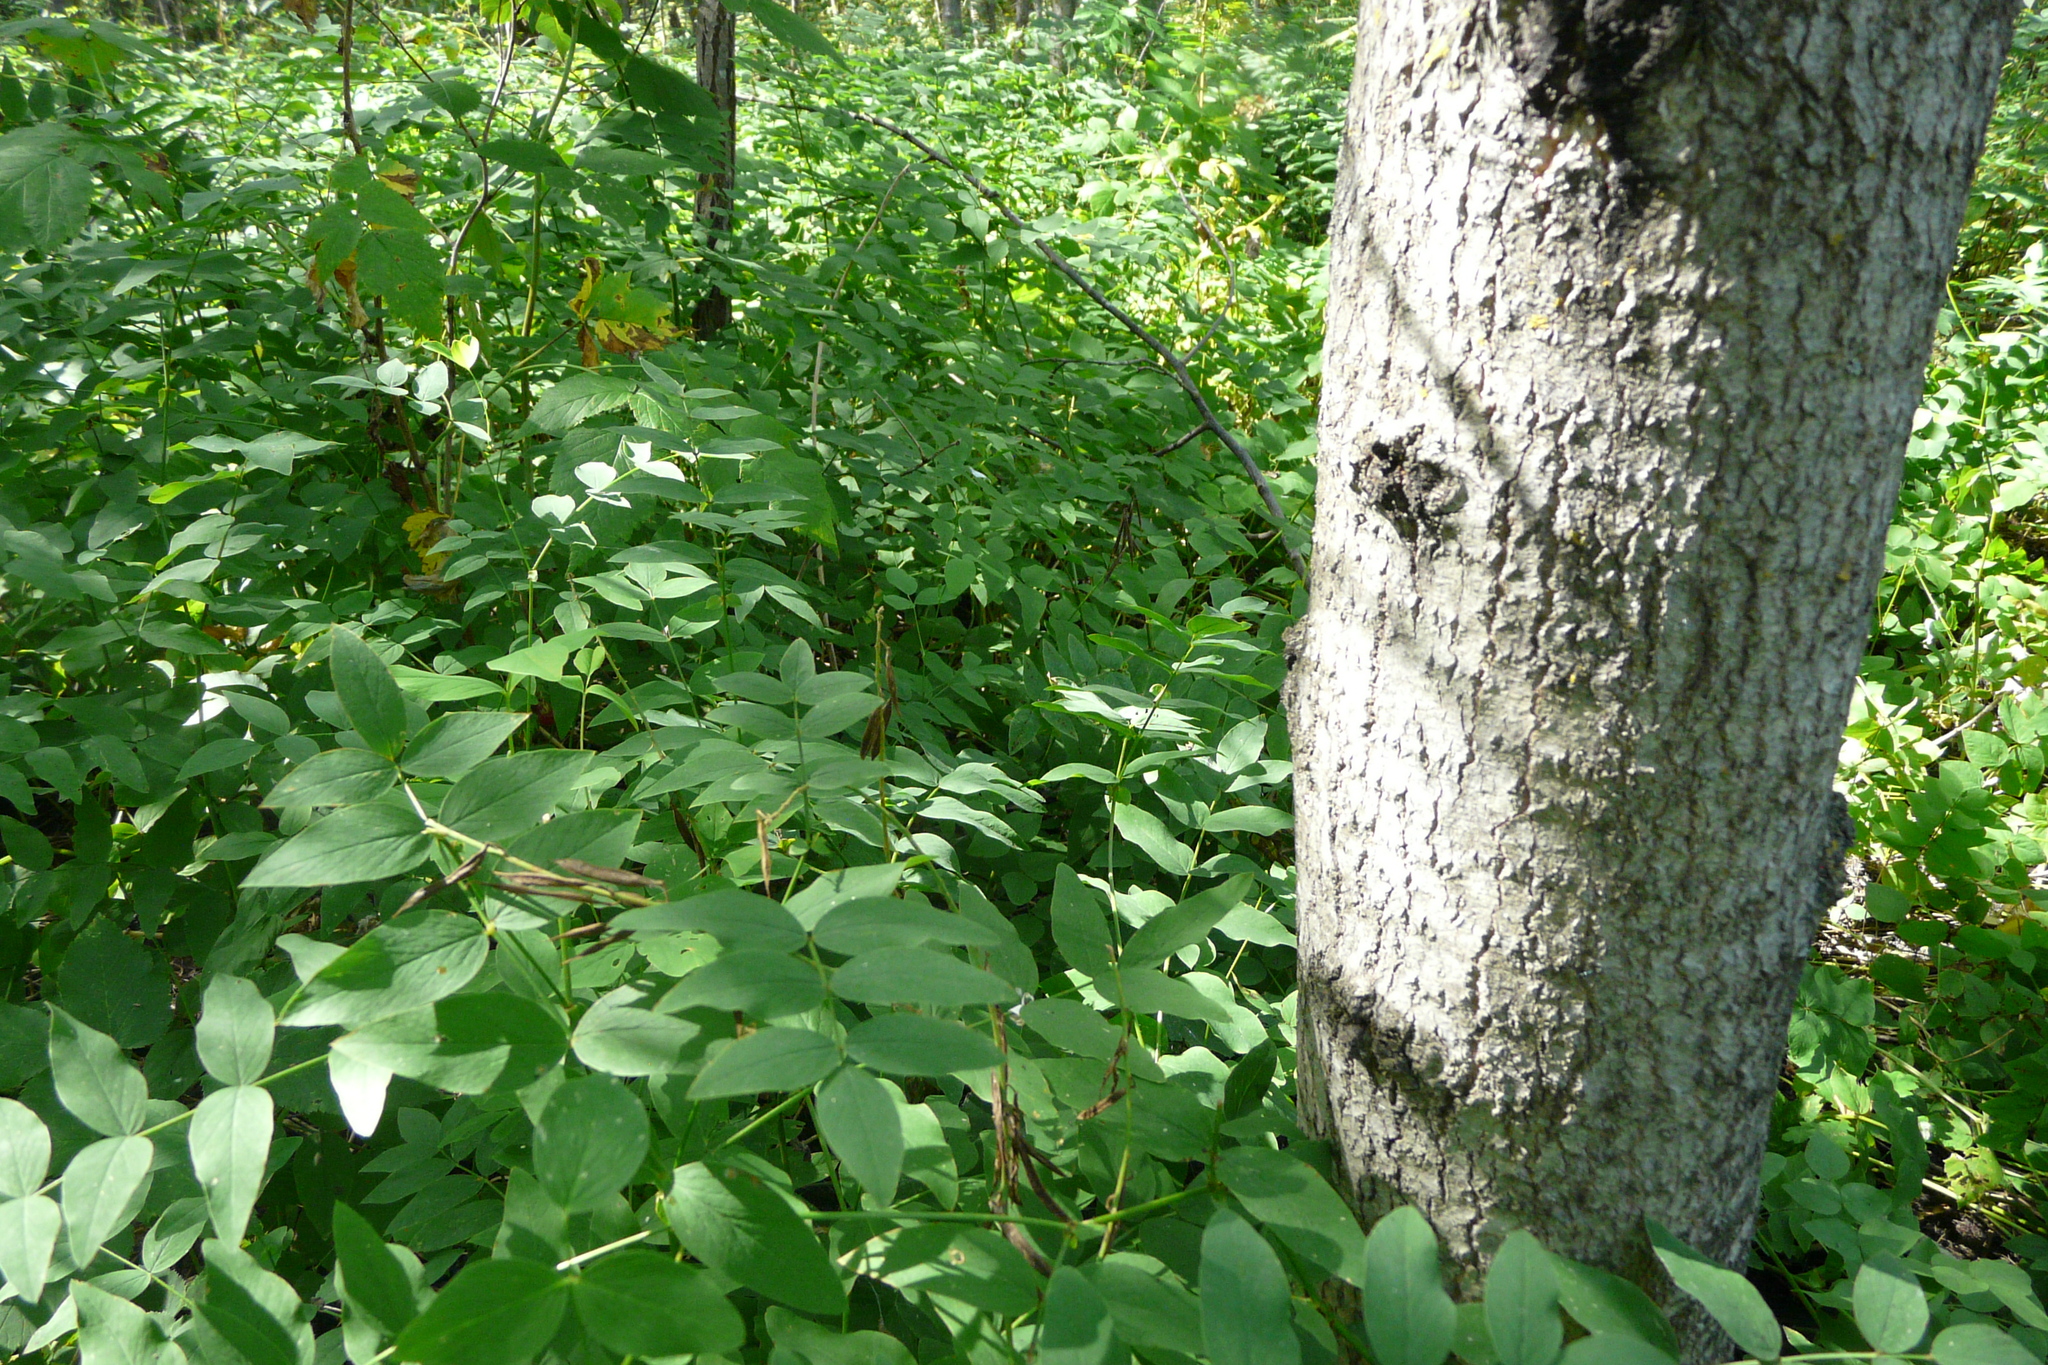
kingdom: Plantae
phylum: Tracheophyta
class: Magnoliopsida
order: Fabales
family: Fabaceae
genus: Galega
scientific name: Galega orientalis
